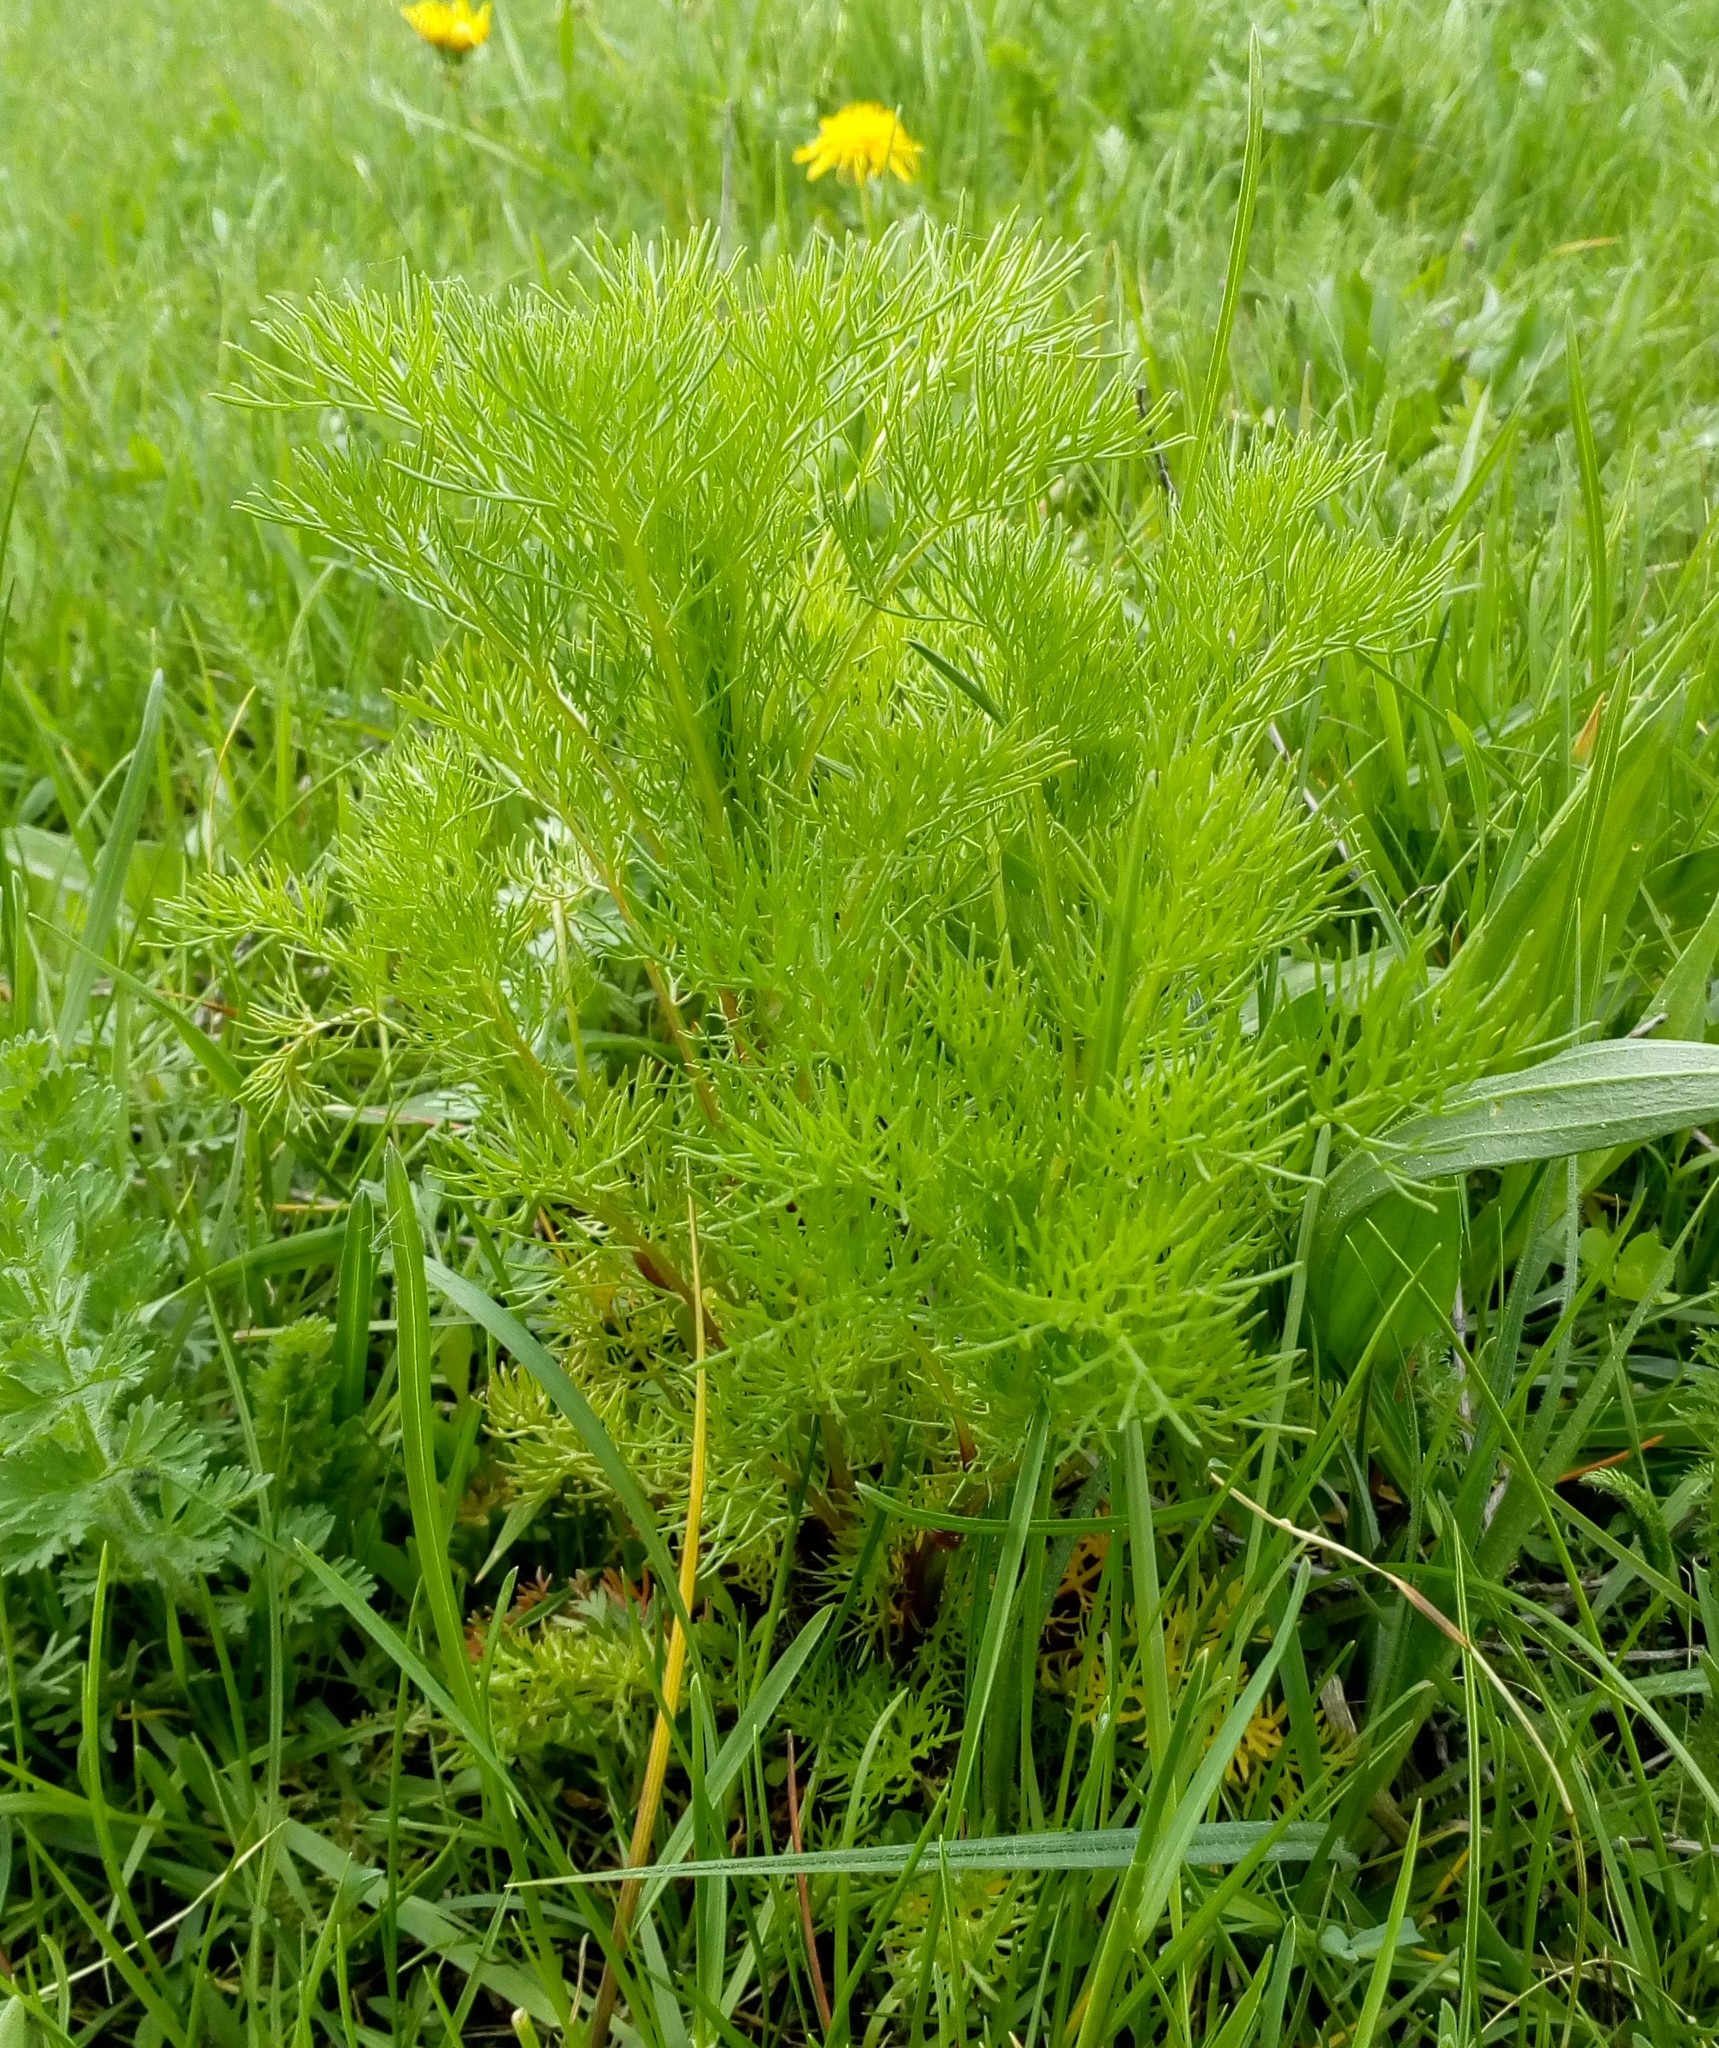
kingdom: Plantae
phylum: Tracheophyta
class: Magnoliopsida
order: Asterales
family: Asteraceae
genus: Tripleurospermum
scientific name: Tripleurospermum inodorum
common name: Scentless mayweed
